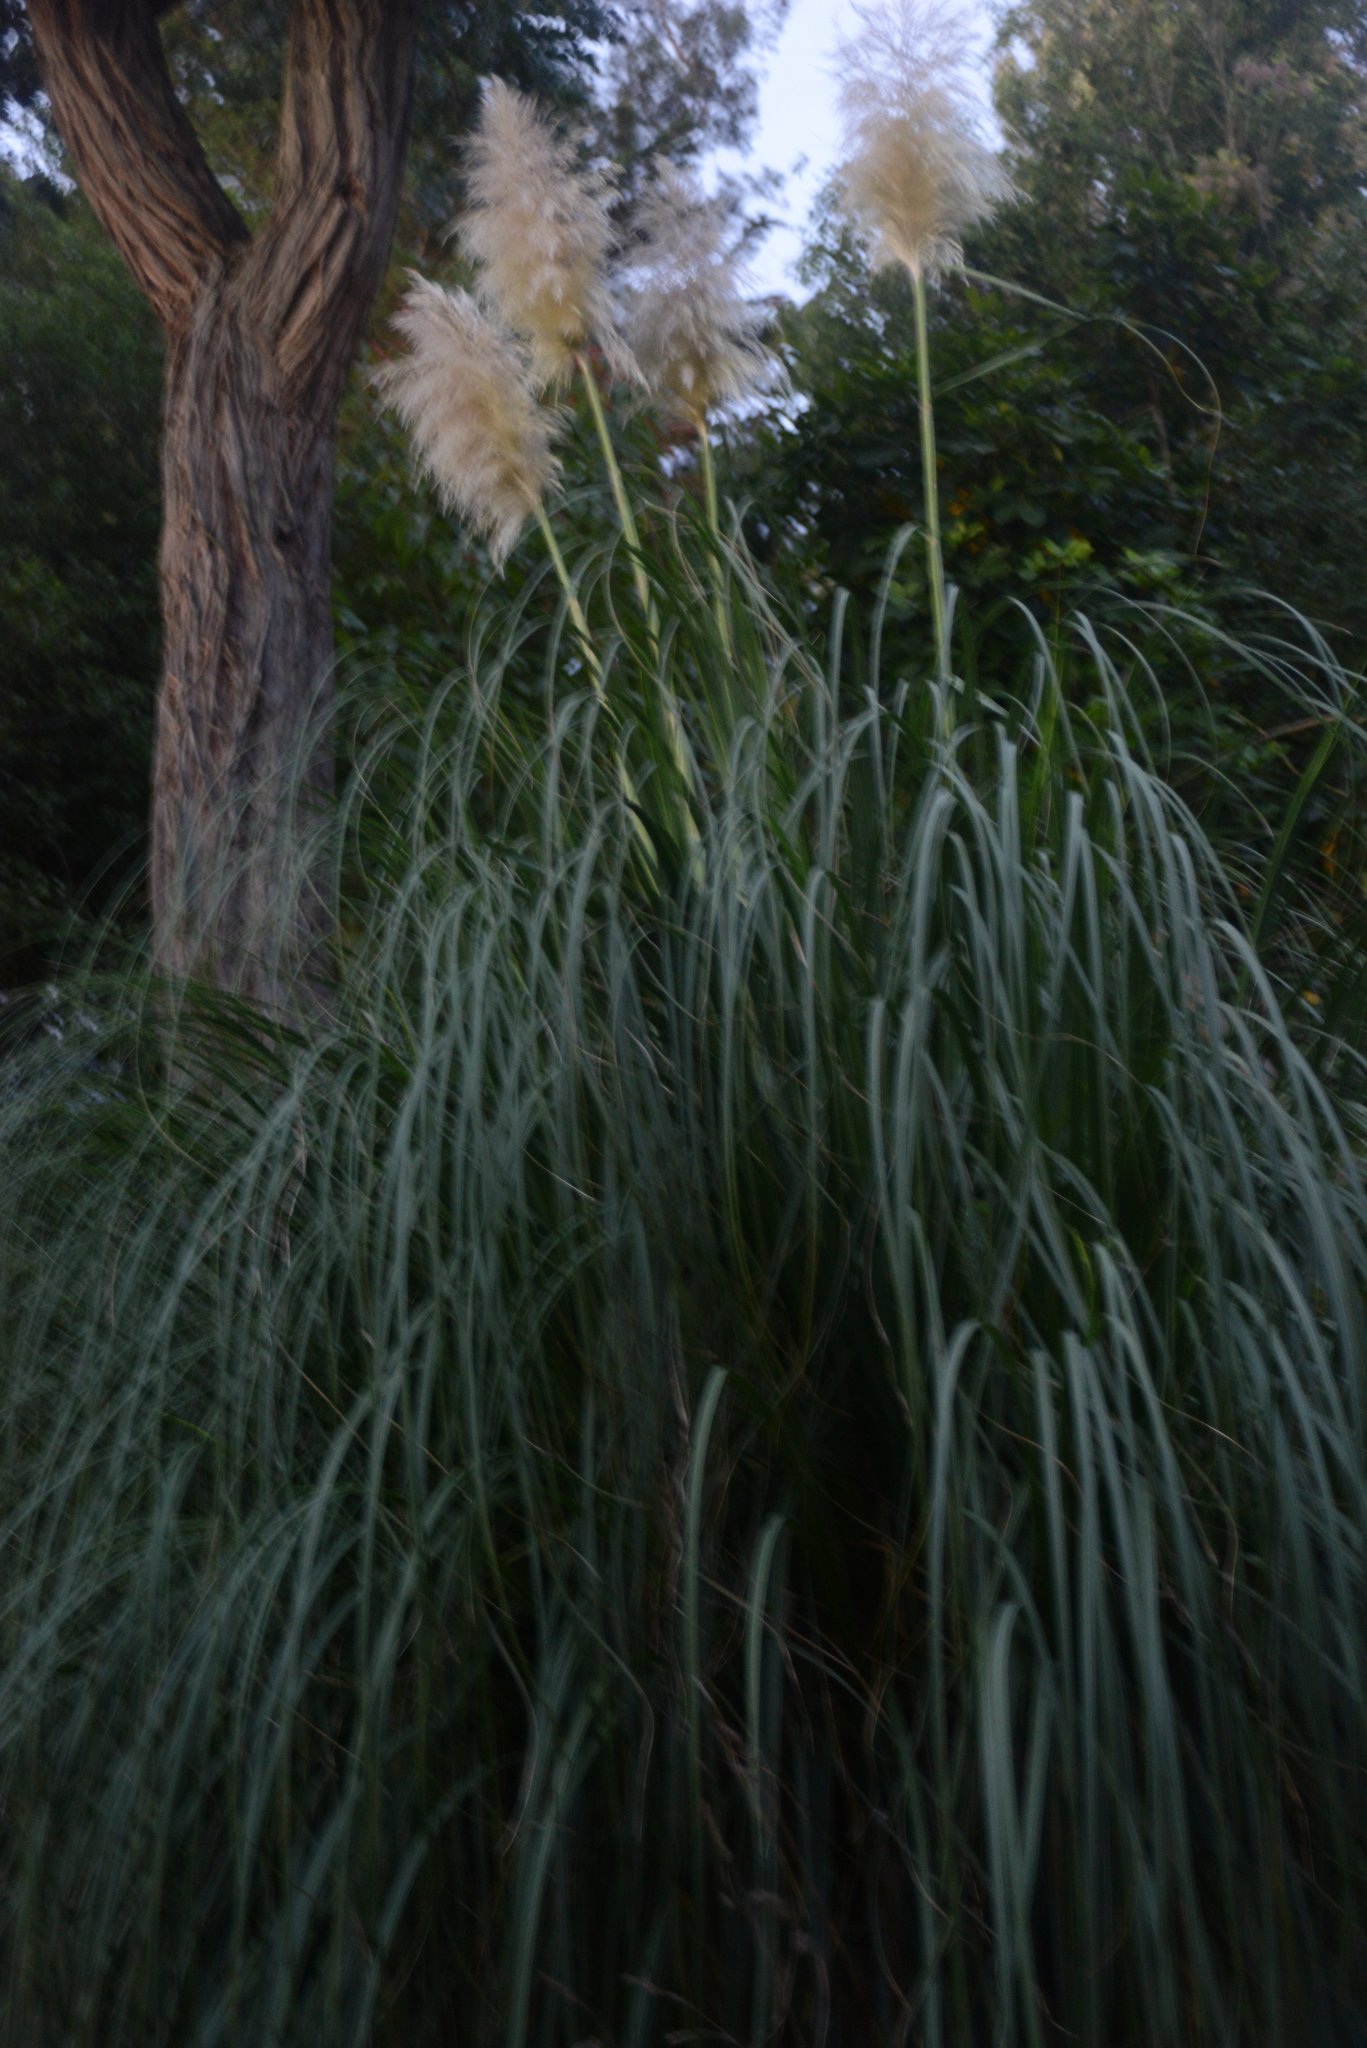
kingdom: Plantae
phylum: Tracheophyta
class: Liliopsida
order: Poales
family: Poaceae
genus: Cortaderia
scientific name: Cortaderia selloana
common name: Uruguayan pampas grass
